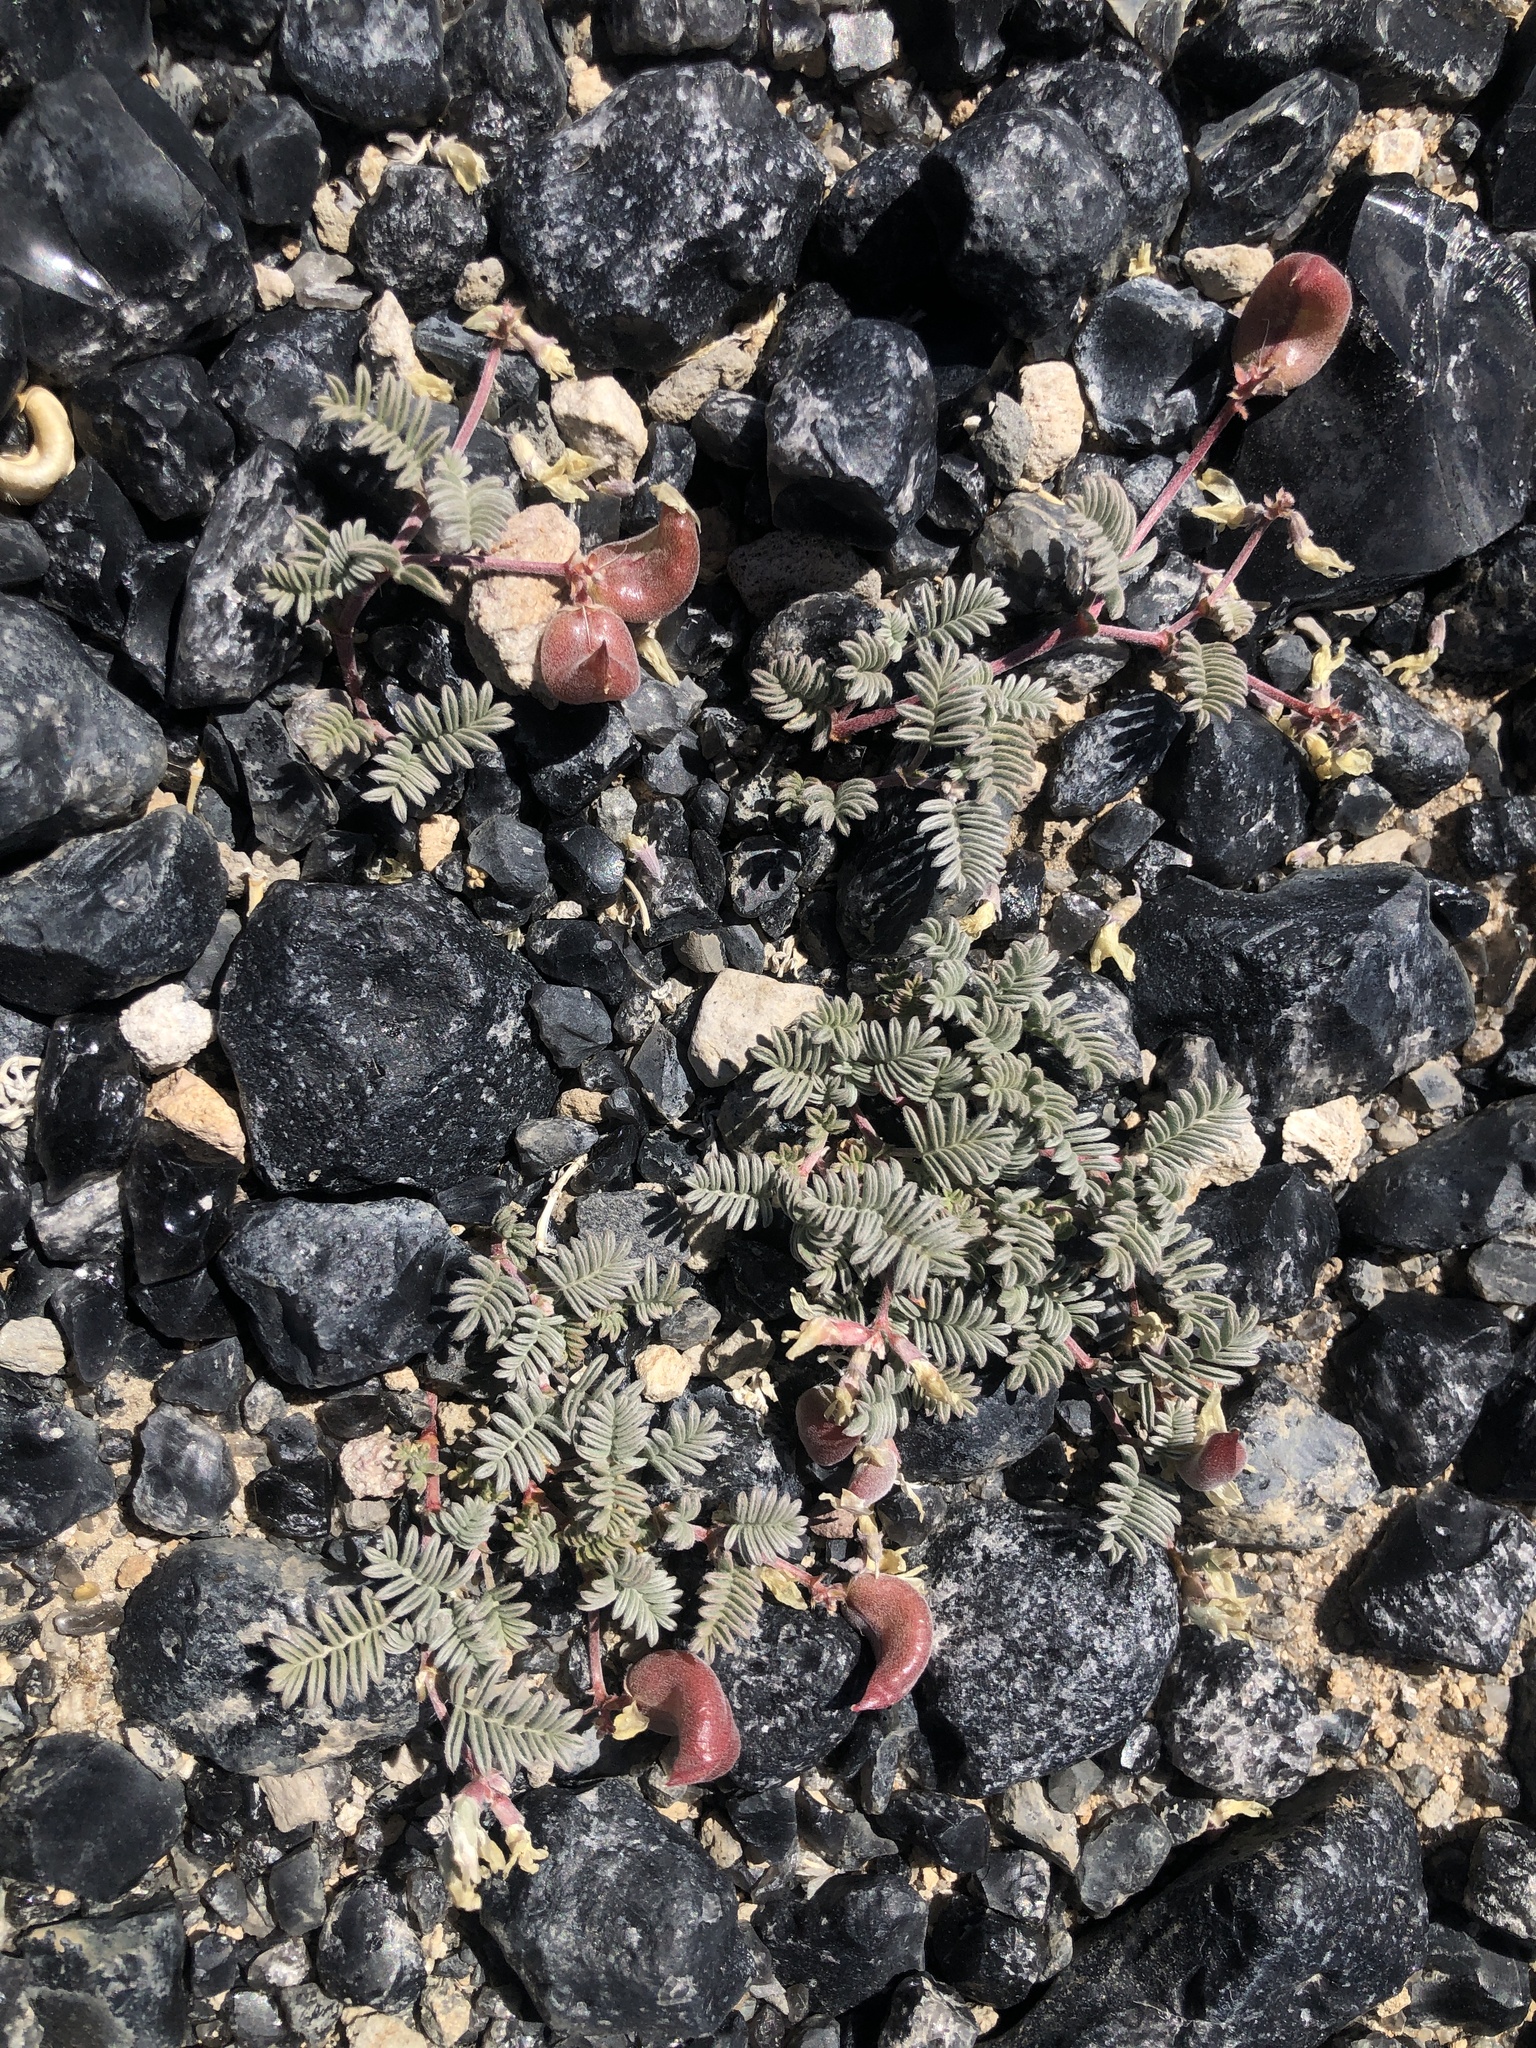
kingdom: Plantae
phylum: Tracheophyta
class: Magnoliopsida
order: Fabales
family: Fabaceae
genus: Astragalus
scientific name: Astragalus monoensis
